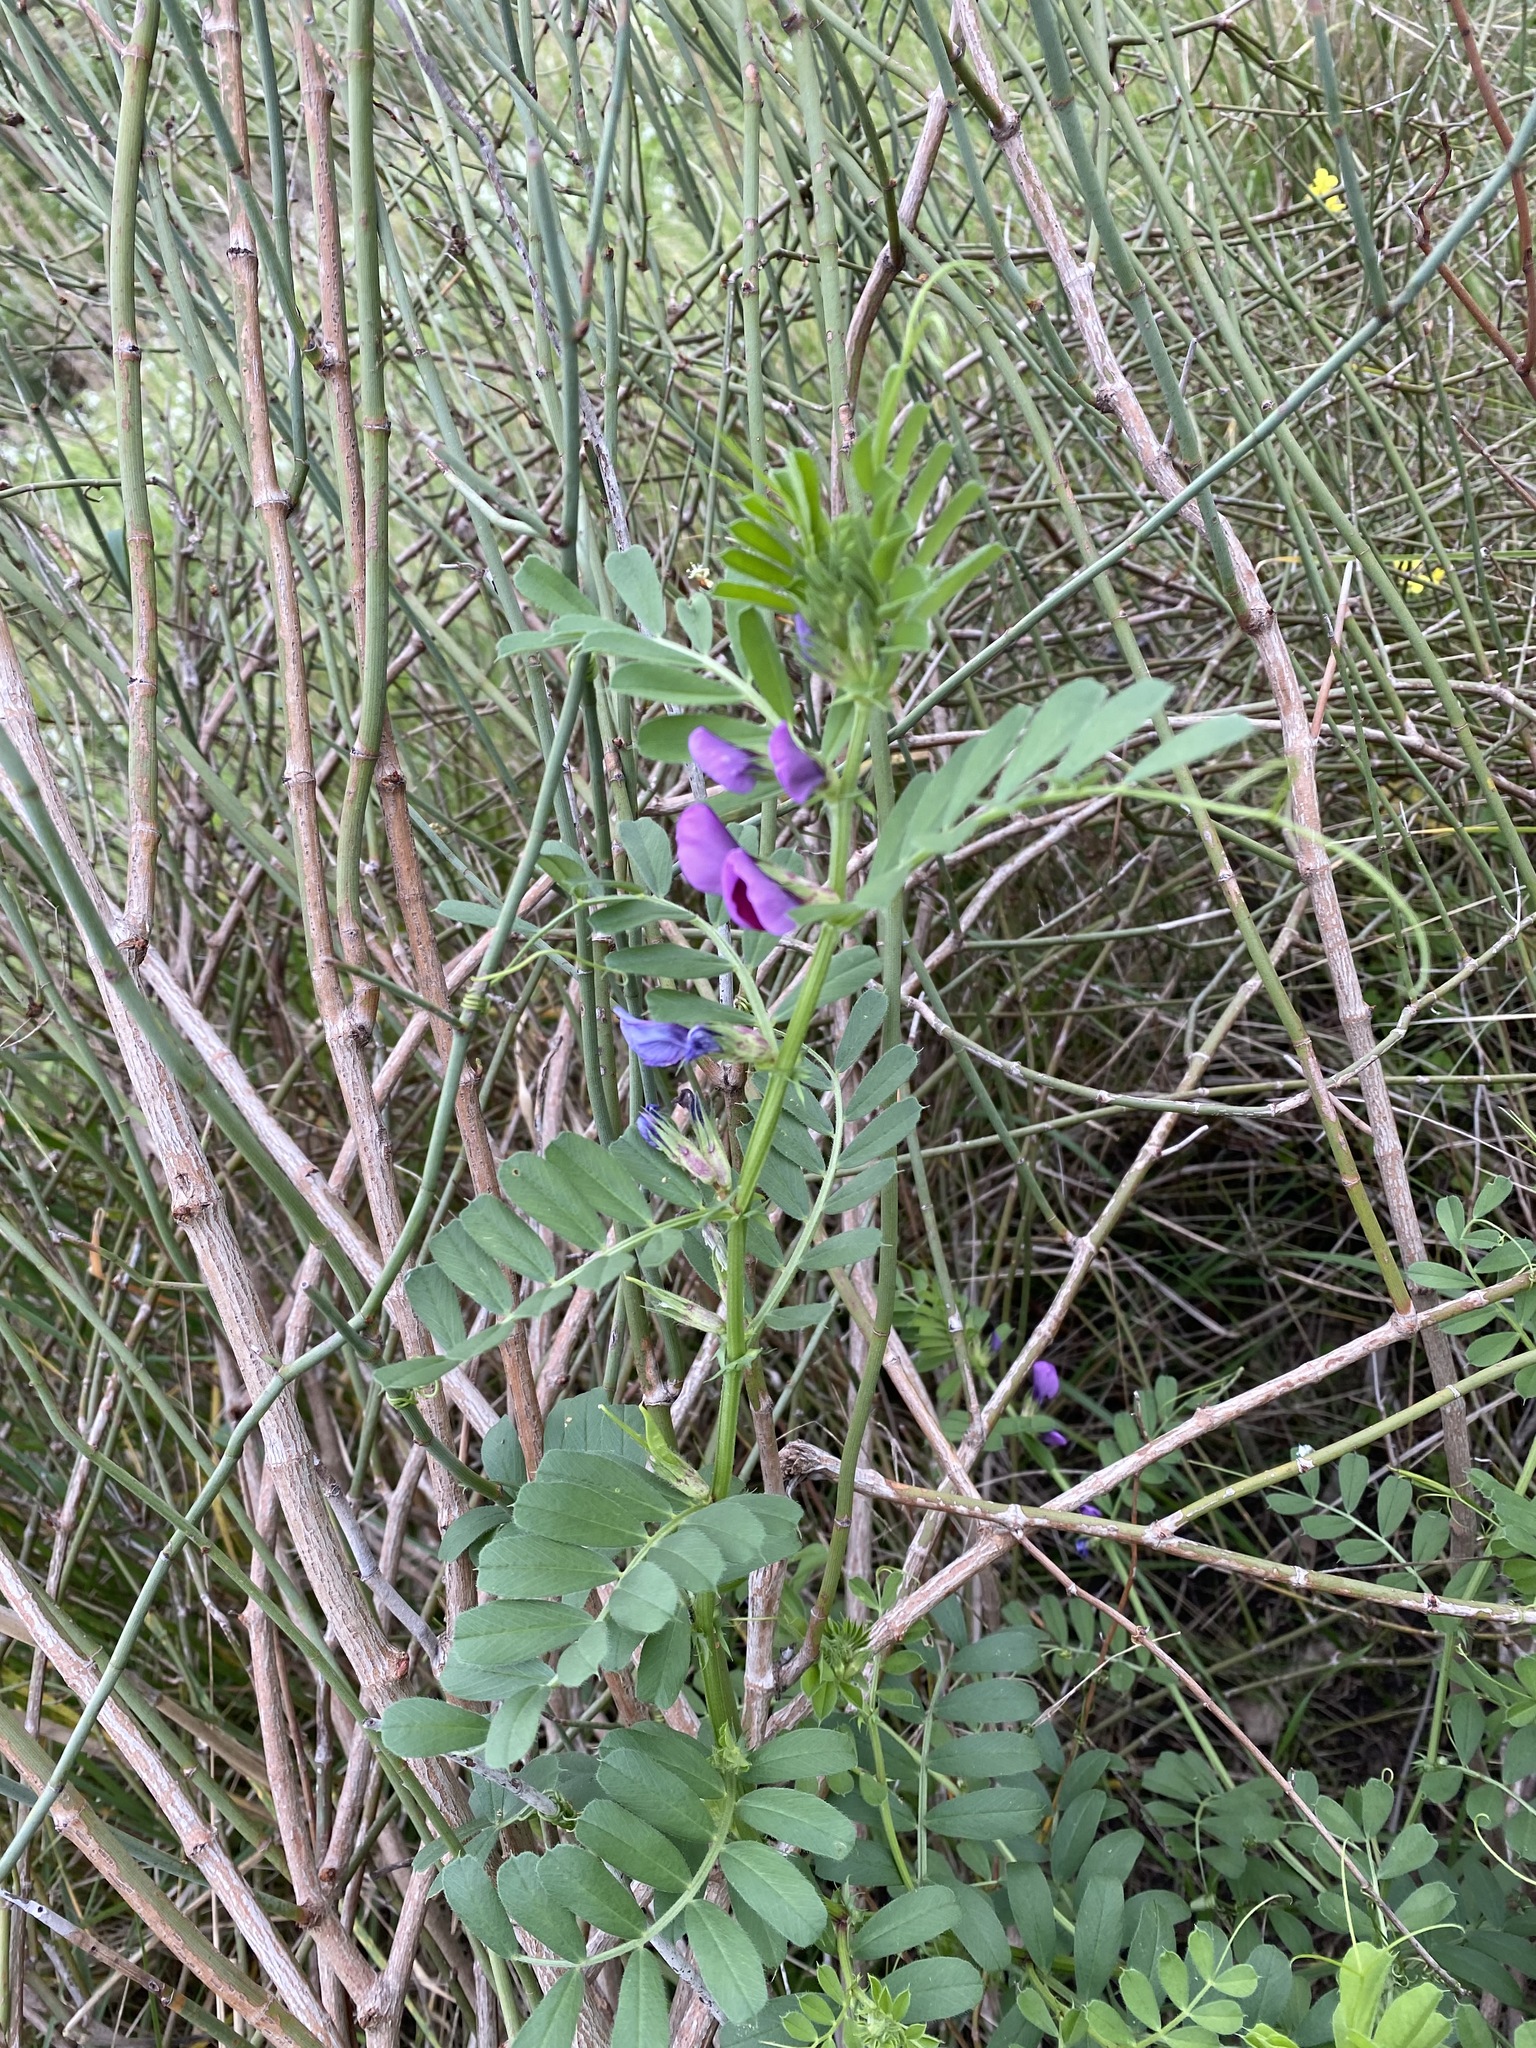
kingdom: Plantae
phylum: Tracheophyta
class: Magnoliopsida
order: Fabales
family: Fabaceae
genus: Vicia
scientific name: Vicia sativa
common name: Garden vetch
